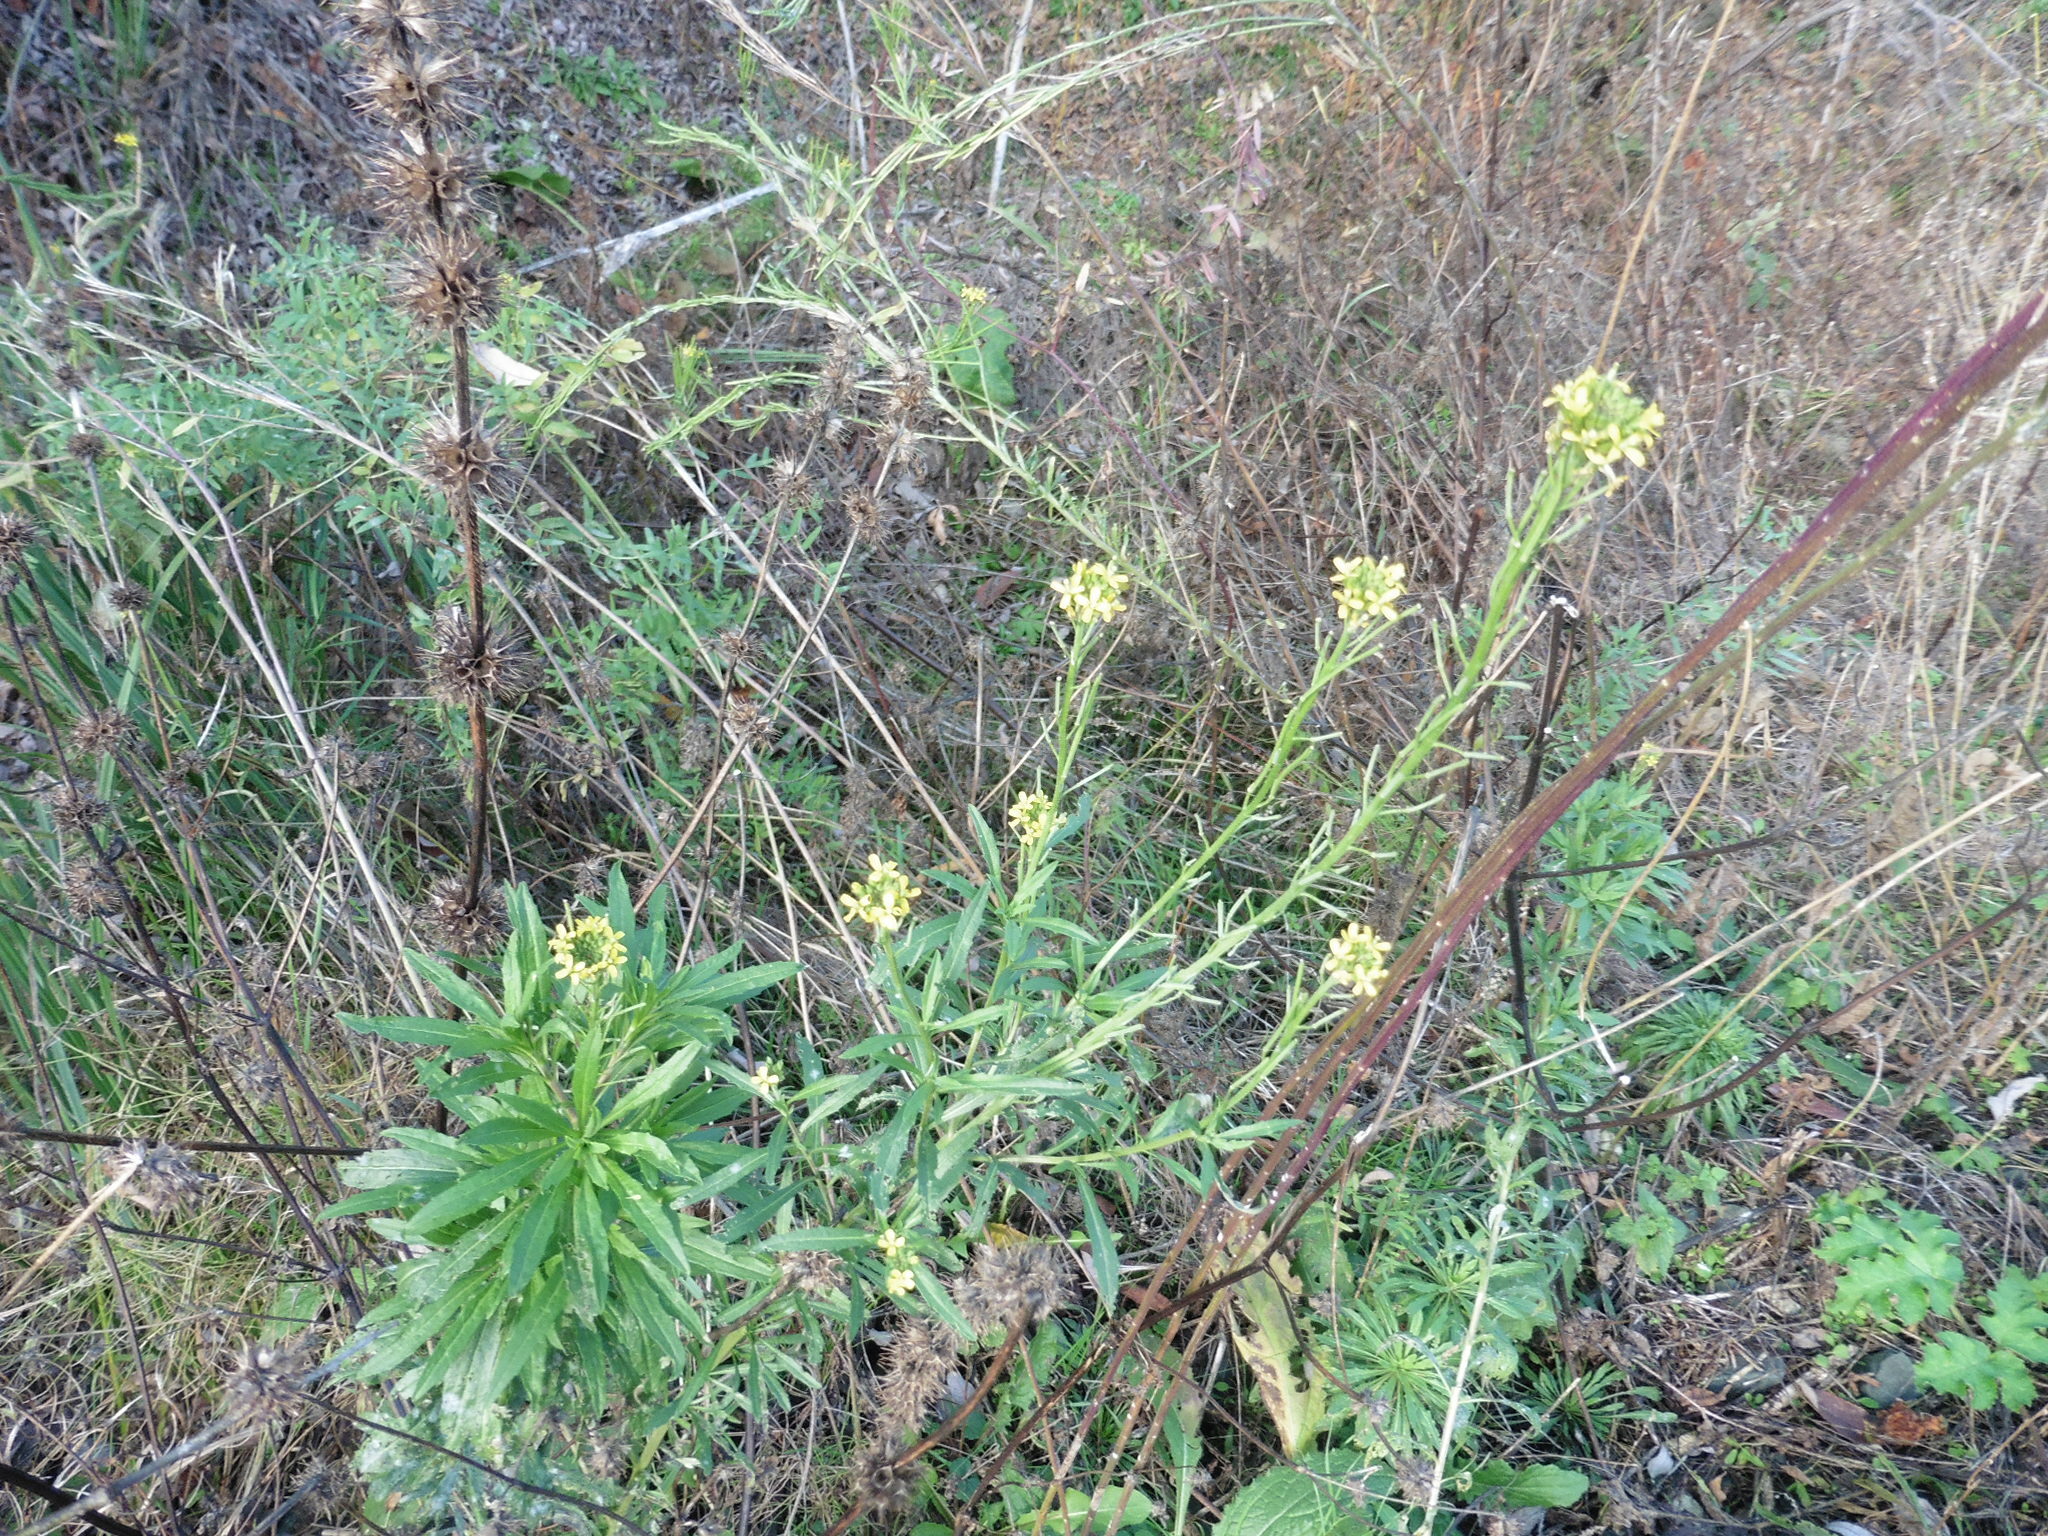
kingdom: Plantae
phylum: Tracheophyta
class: Magnoliopsida
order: Brassicales
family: Brassicaceae
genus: Erysimum
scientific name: Erysimum hieraciifolium
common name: European wallflower
